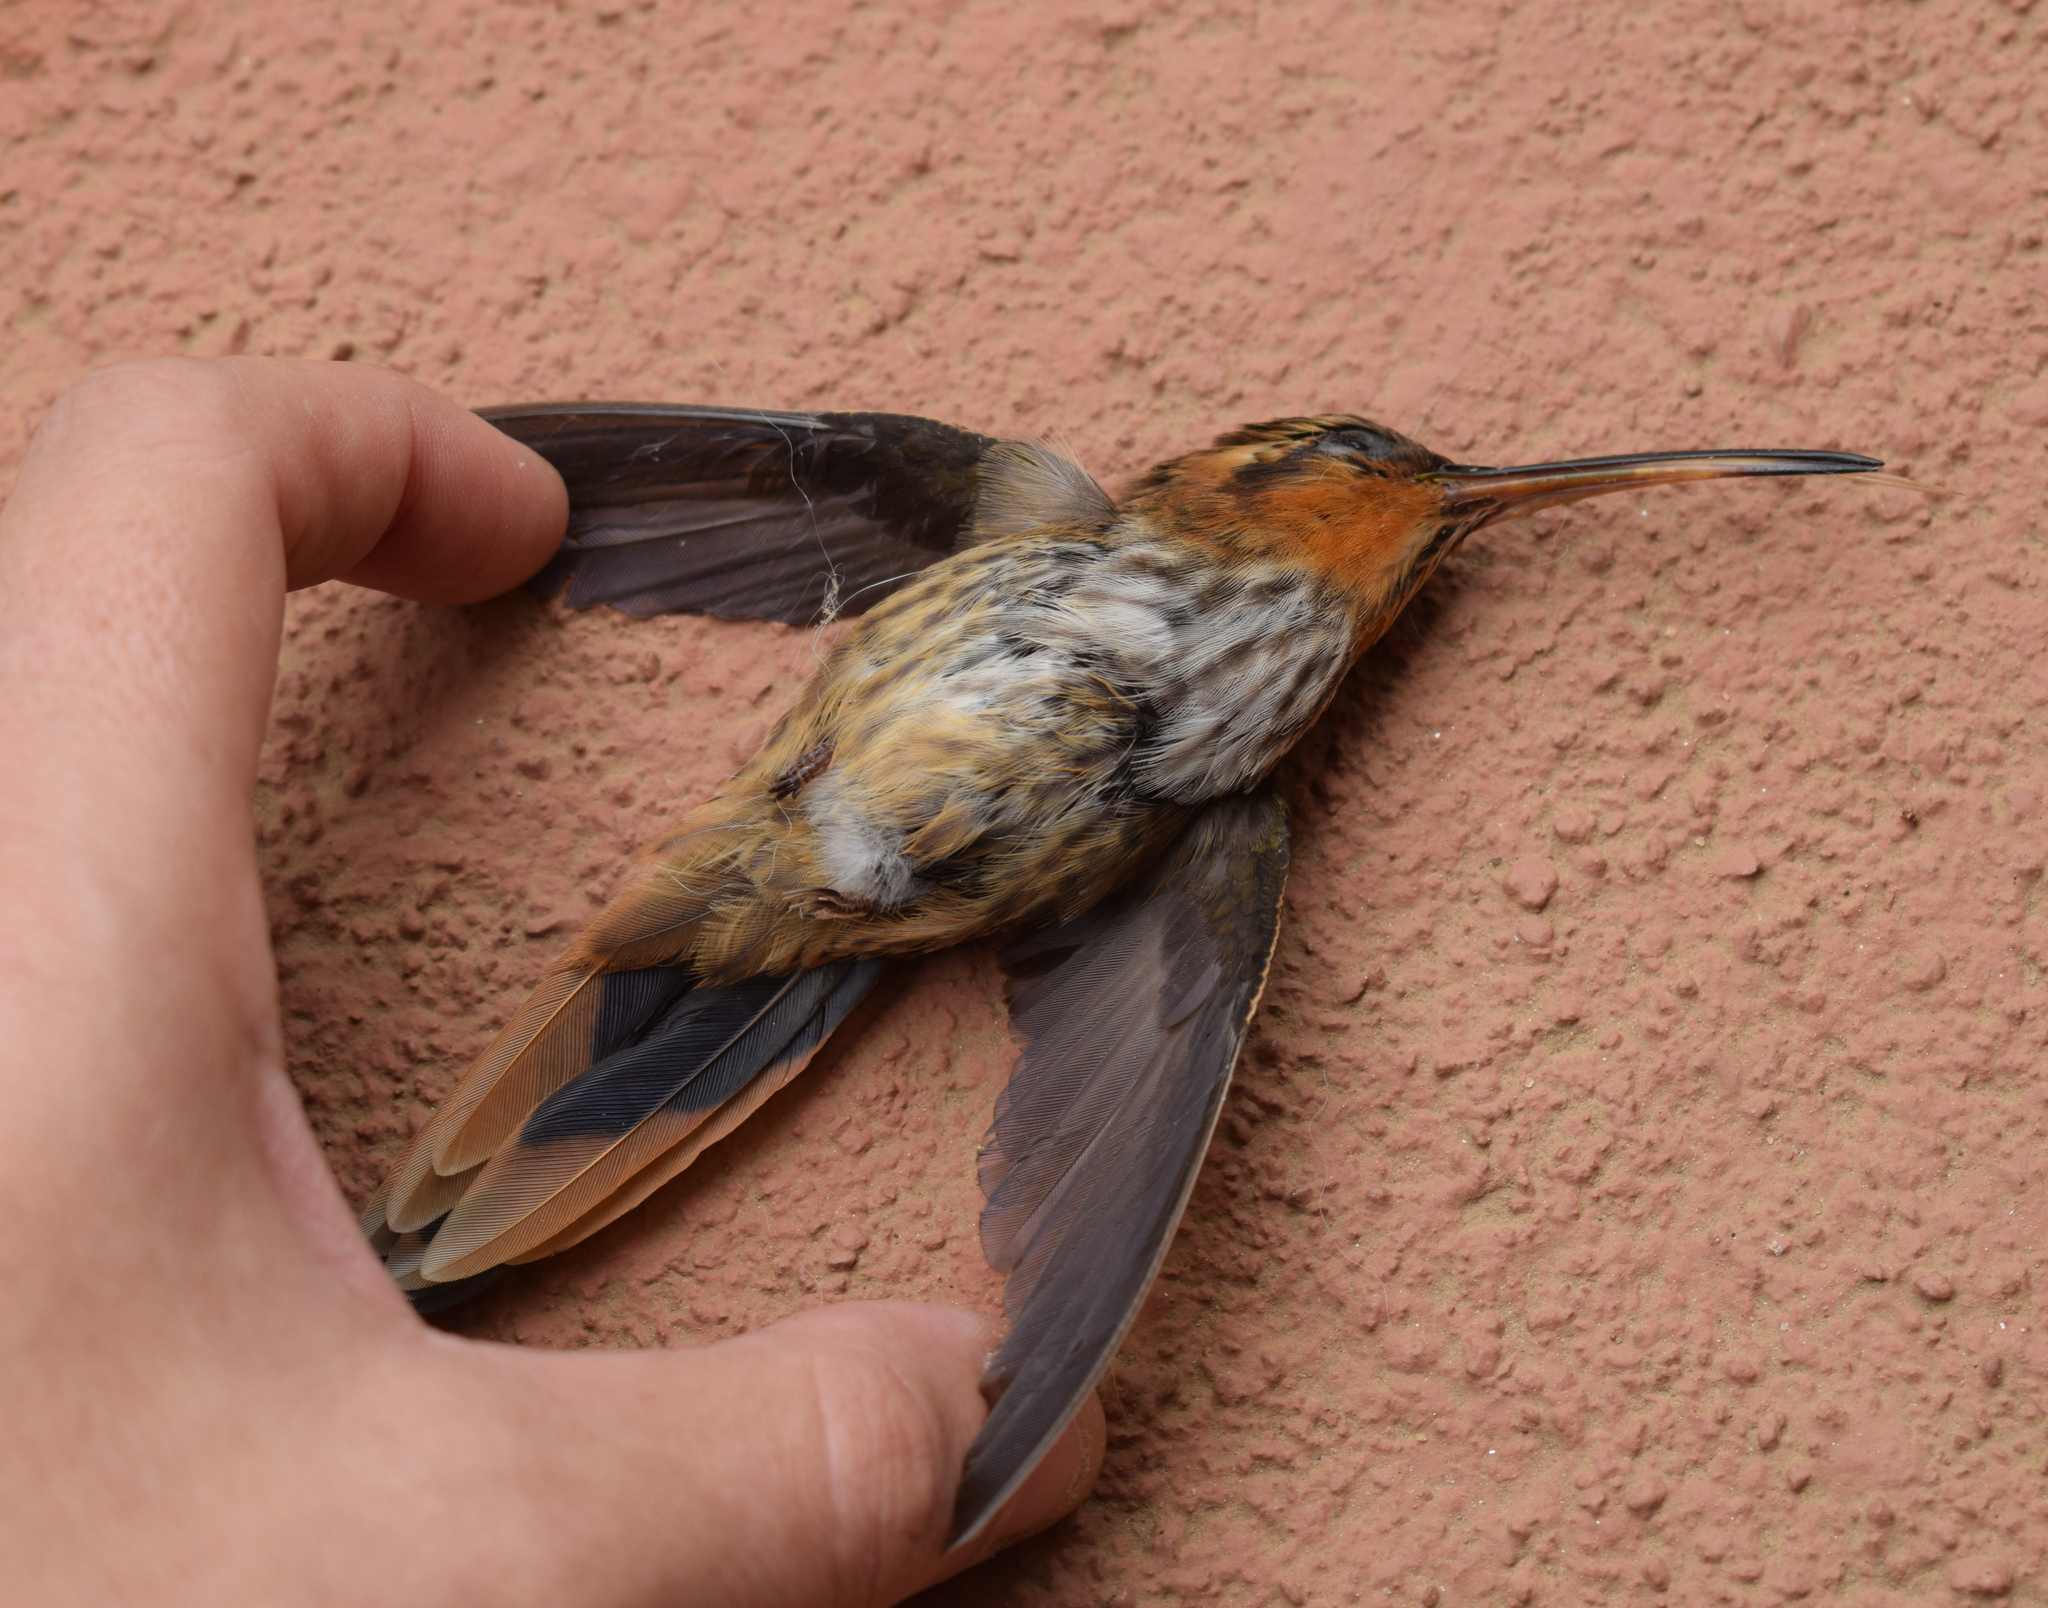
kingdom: Animalia
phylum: Chordata
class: Aves
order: Apodiformes
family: Trochilidae
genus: Ramphodon
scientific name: Ramphodon naevius
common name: Saw-billed hermit
